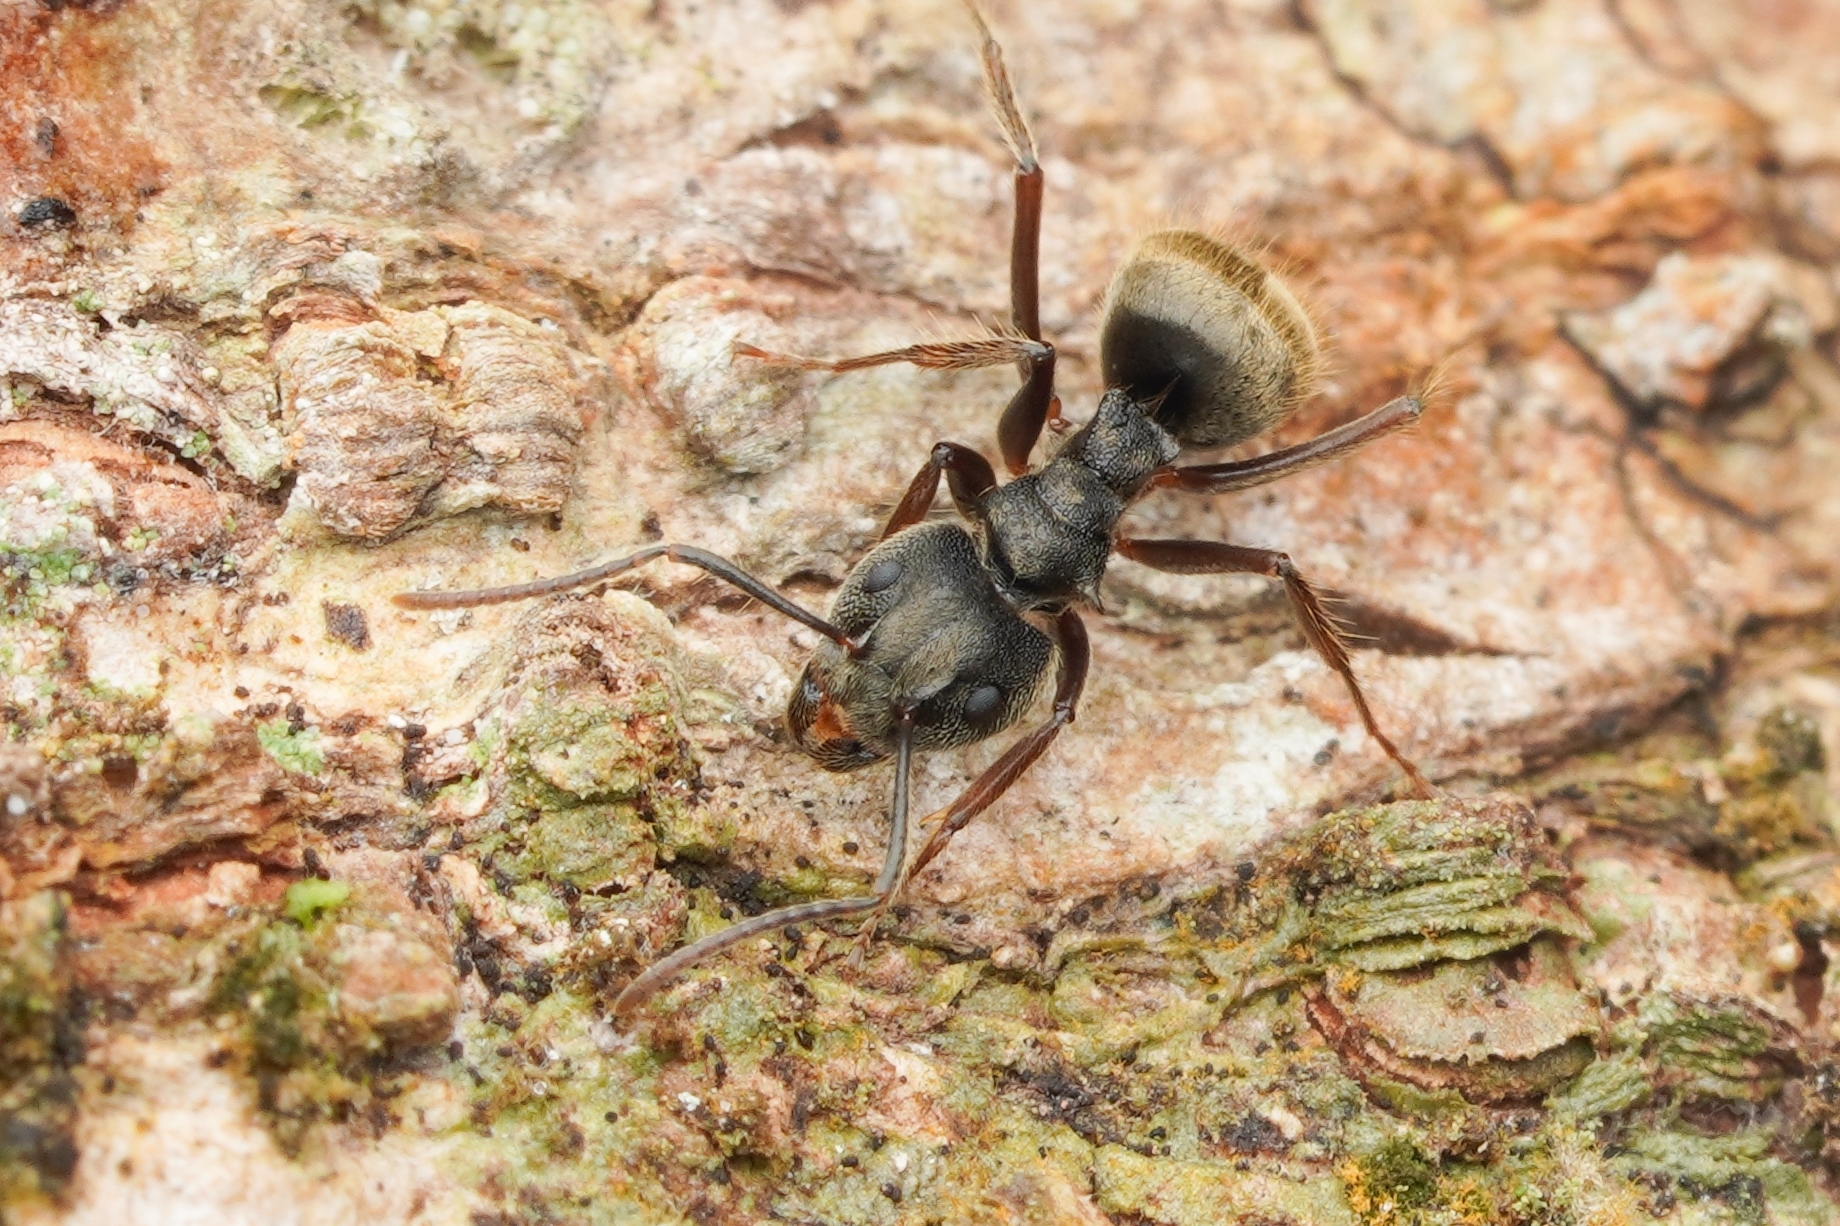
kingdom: Animalia
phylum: Arthropoda
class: Insecta
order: Hymenoptera
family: Formicidae
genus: Dolichoderus
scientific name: Dolichoderus bispinosus
